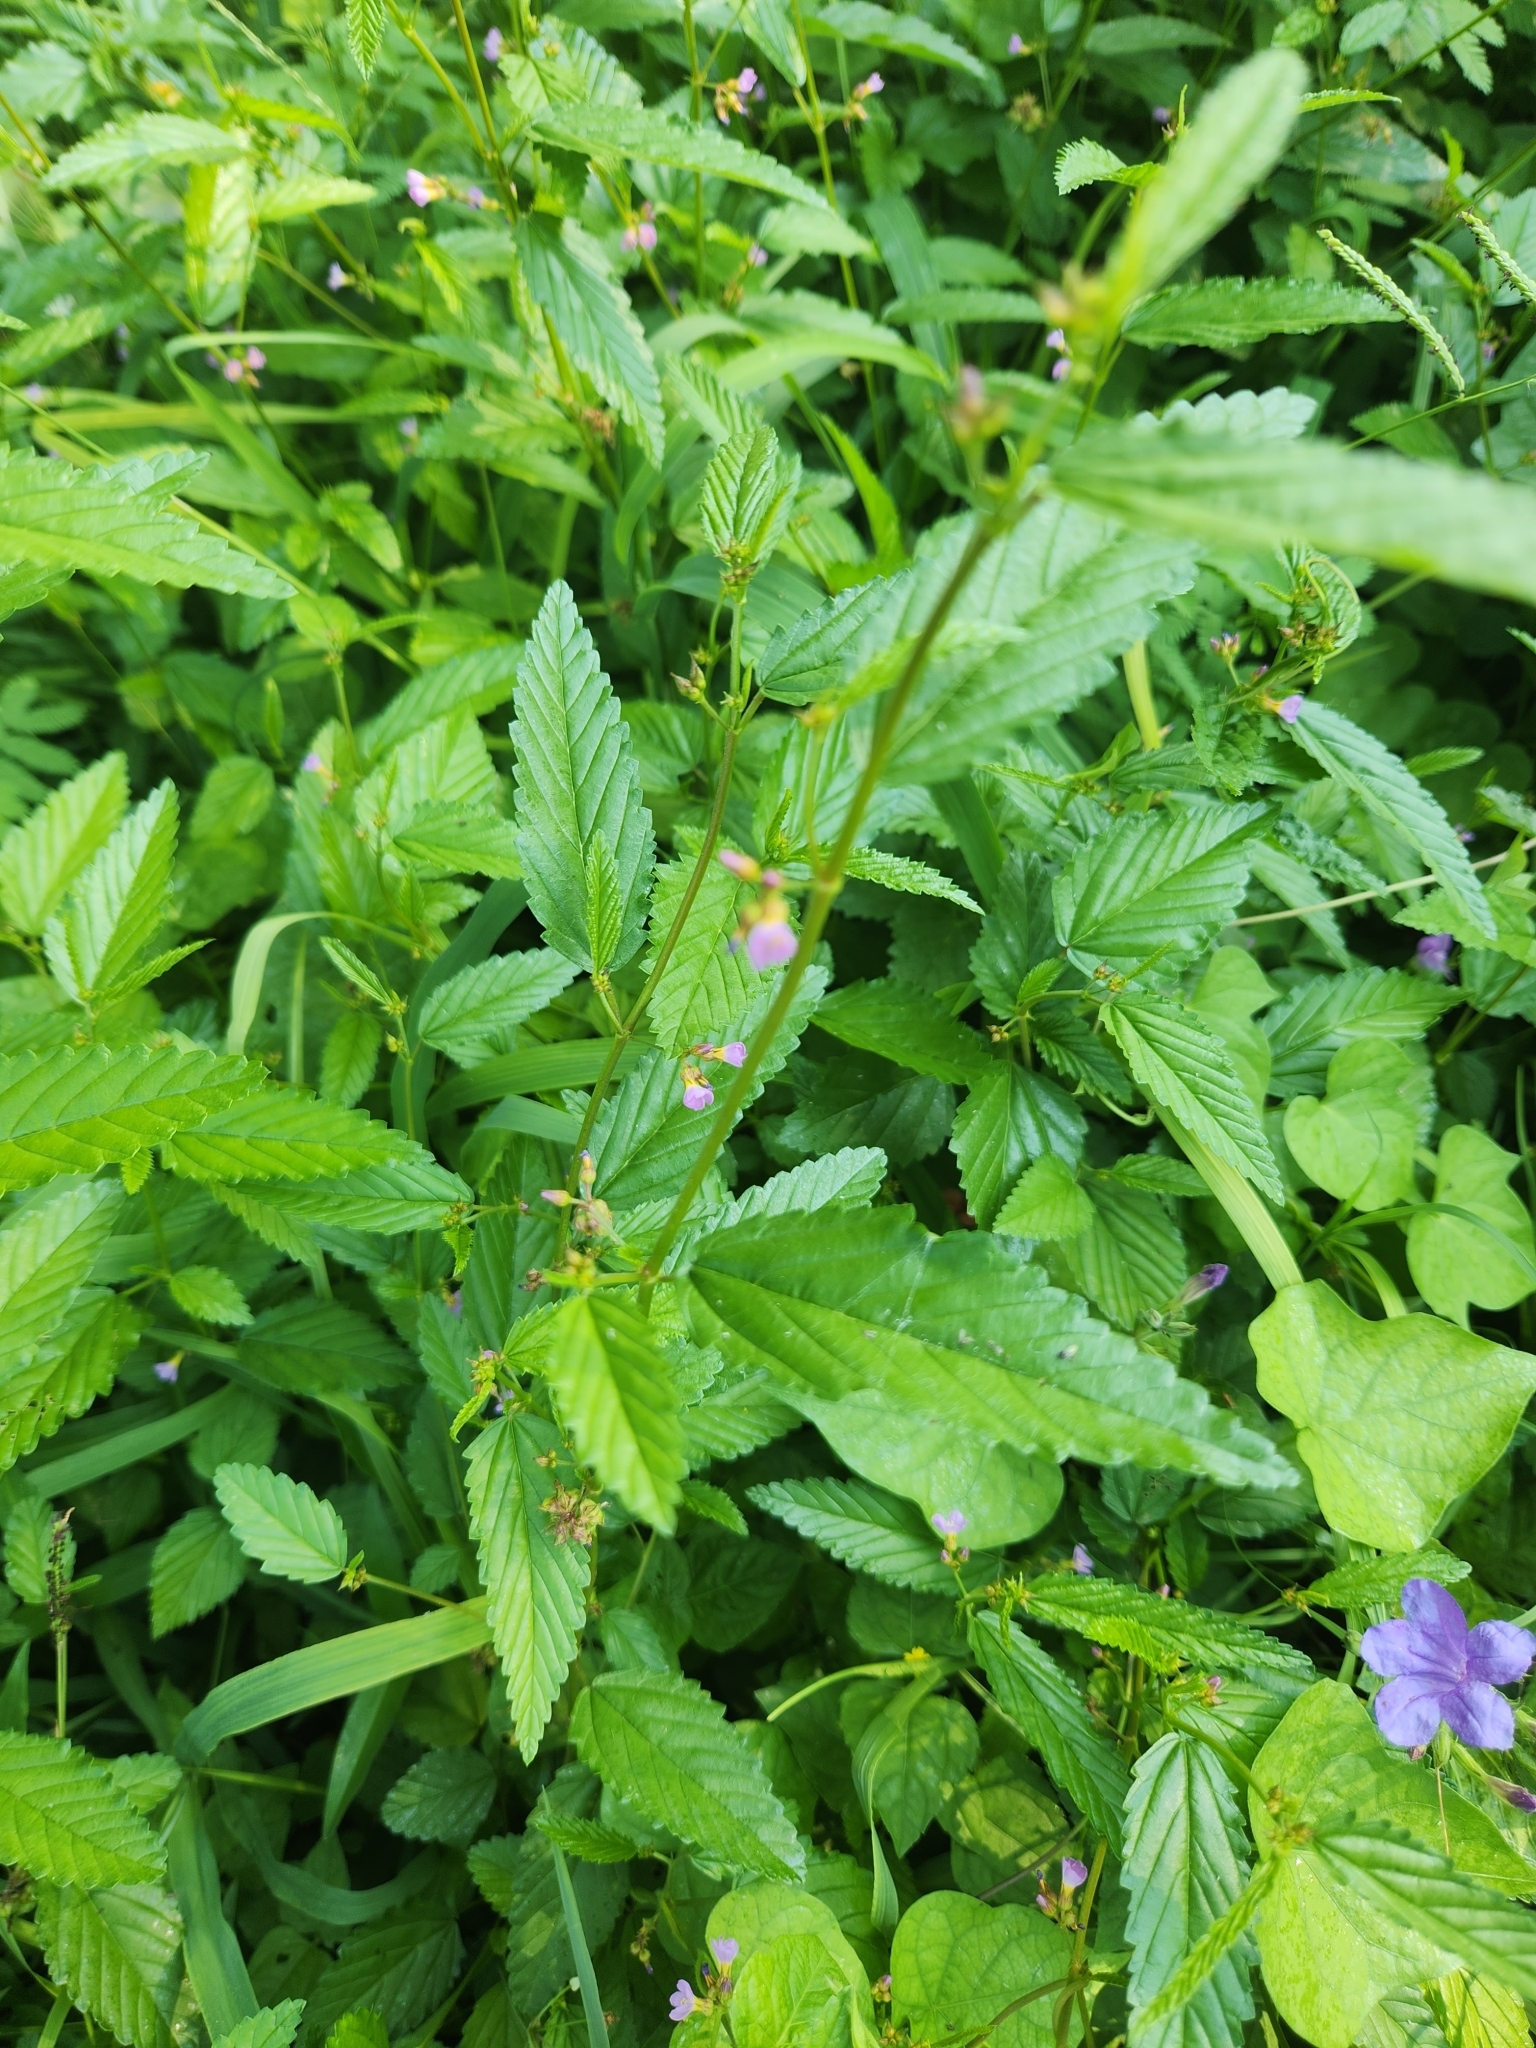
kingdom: Plantae
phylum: Tracheophyta
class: Magnoliopsida
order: Malvales
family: Malvaceae
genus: Melochia
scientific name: Melochia pyramidata
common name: Pyramidflower
